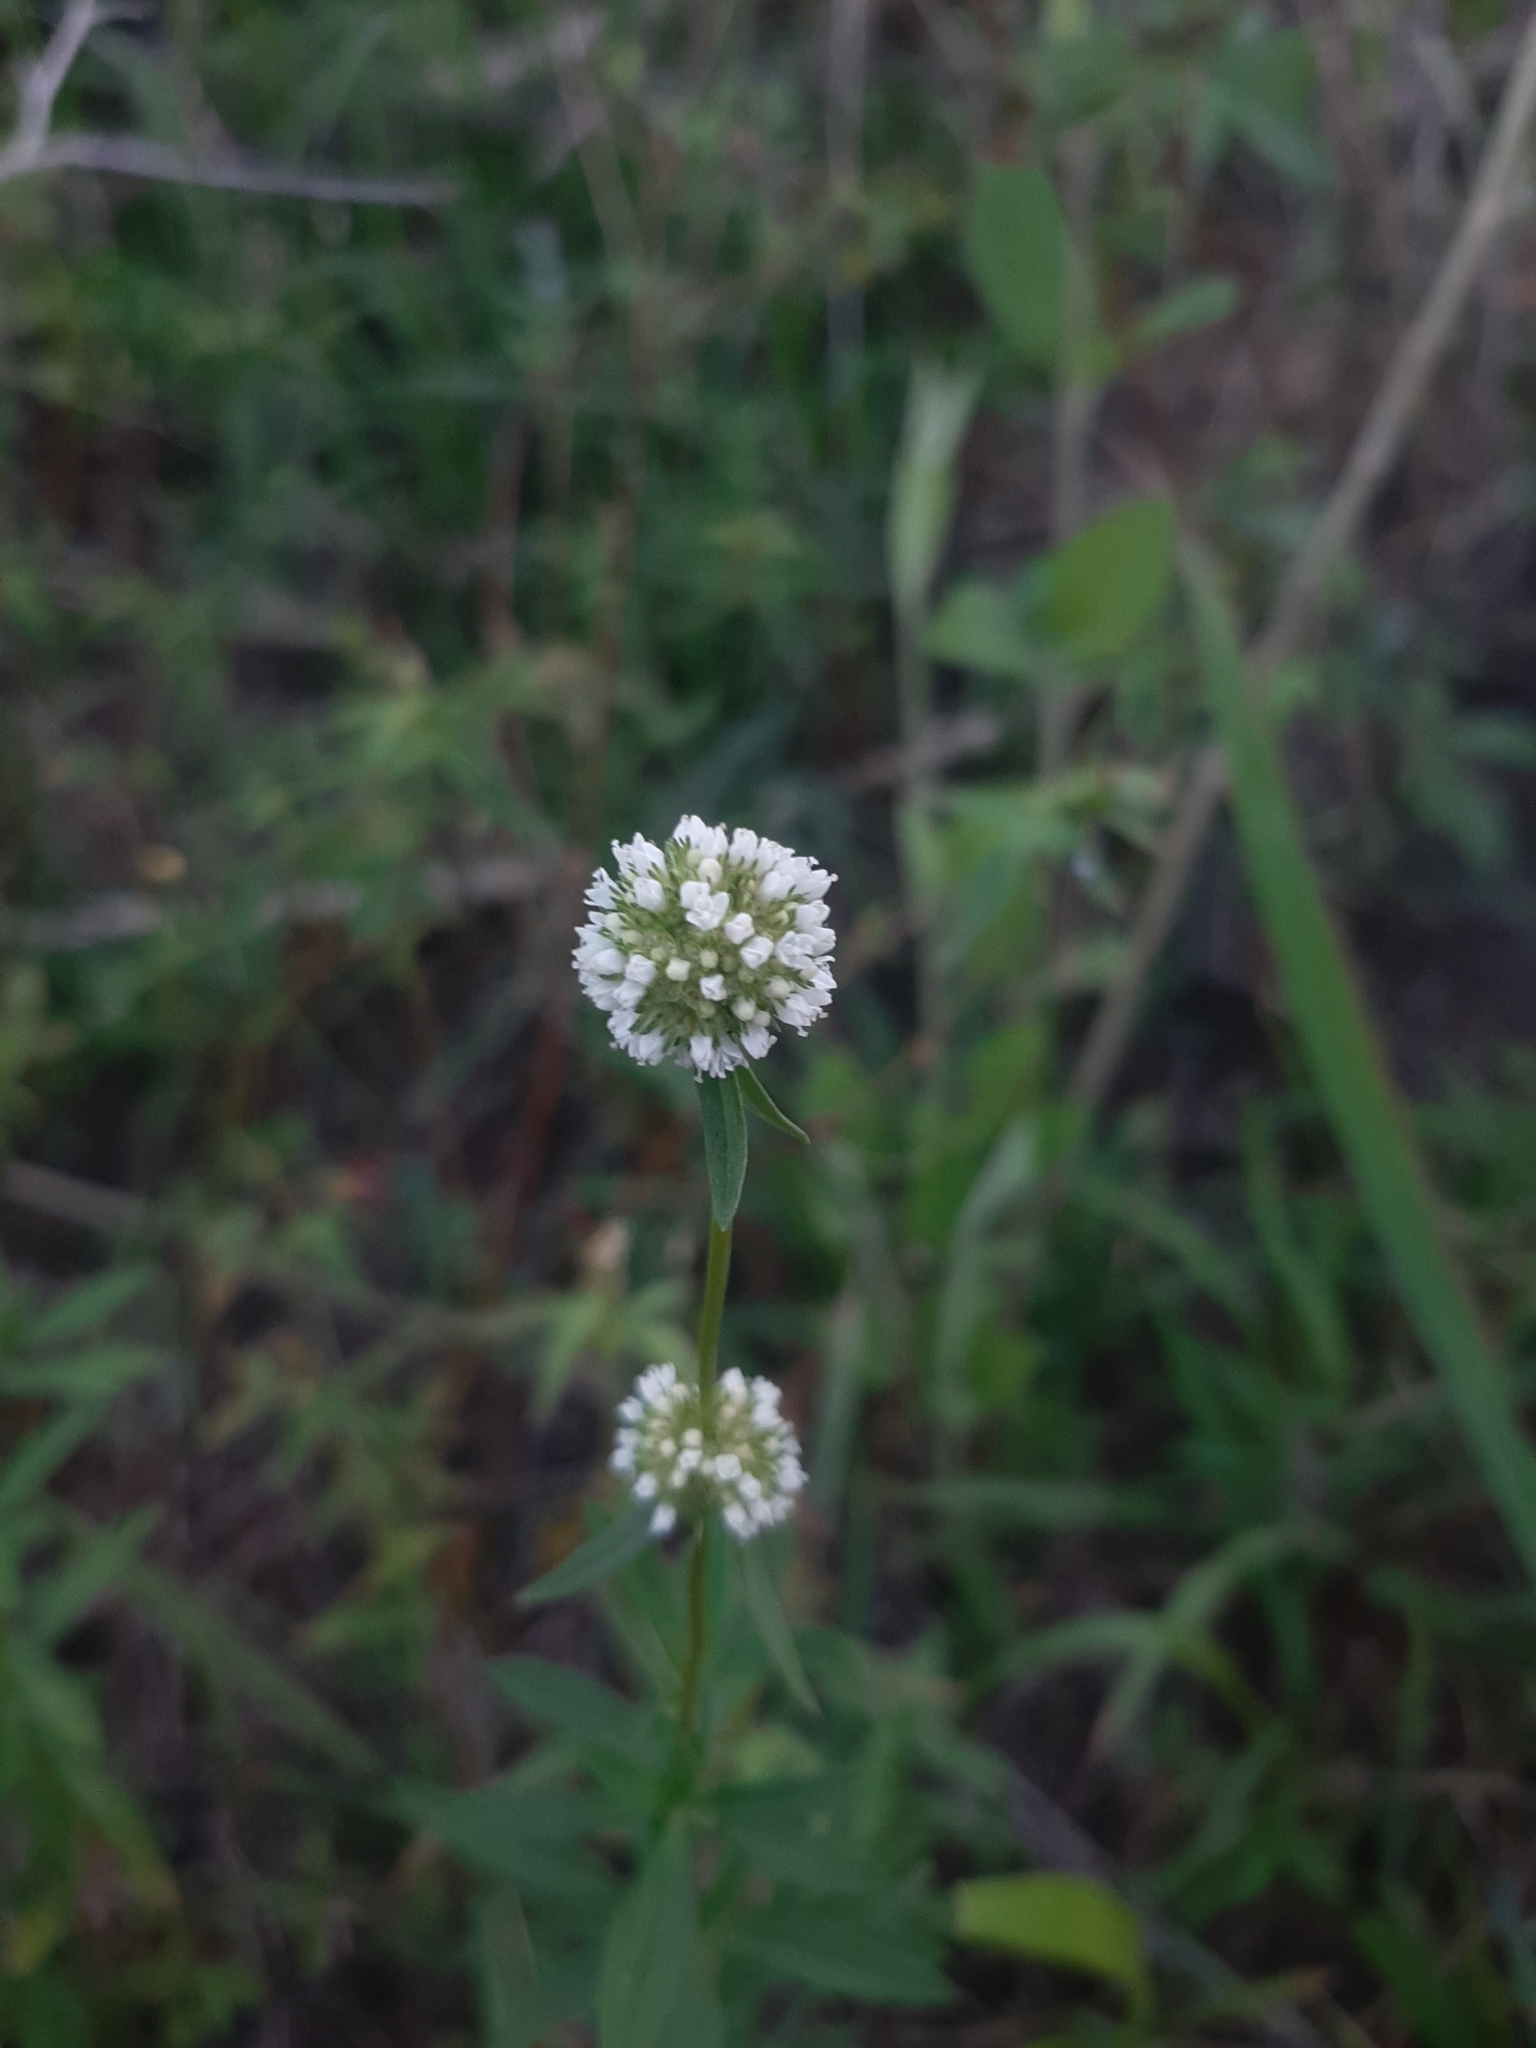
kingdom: Plantae
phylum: Tracheophyta
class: Magnoliopsida
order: Gentianales
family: Rubiaceae
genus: Spermacoce
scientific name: Spermacoce verticillata
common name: Shrubby false buttonweed
